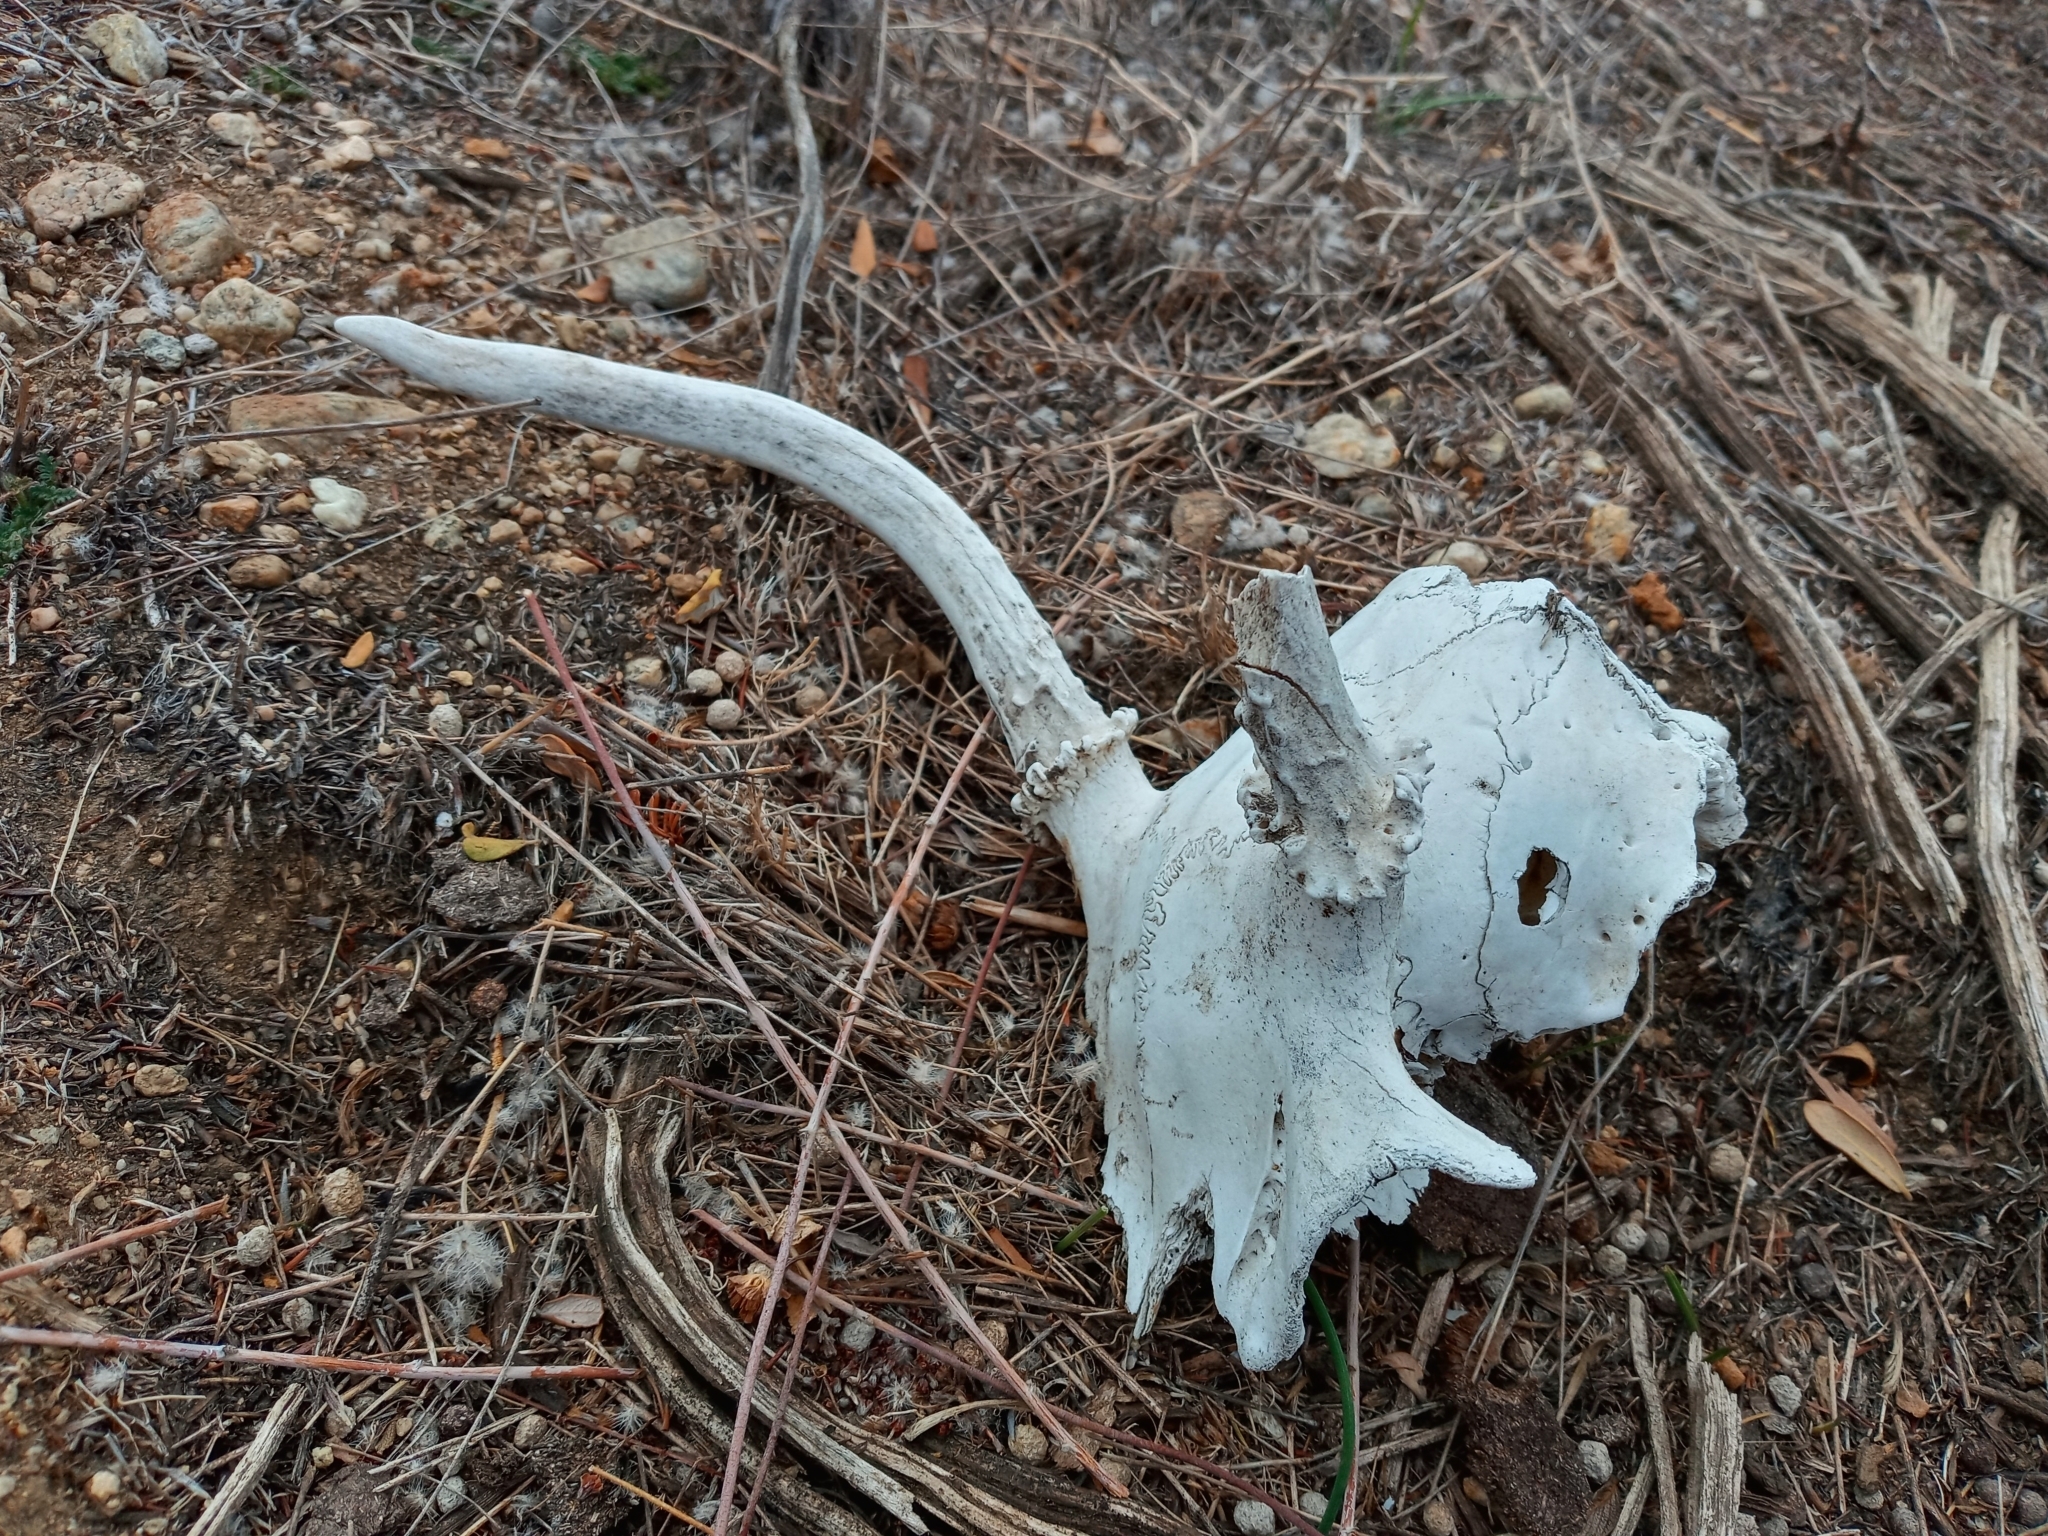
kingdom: Animalia
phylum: Chordata
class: Mammalia
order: Artiodactyla
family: Cervidae
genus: Odocoileus
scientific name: Odocoileus hemionus
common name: Mule deer
